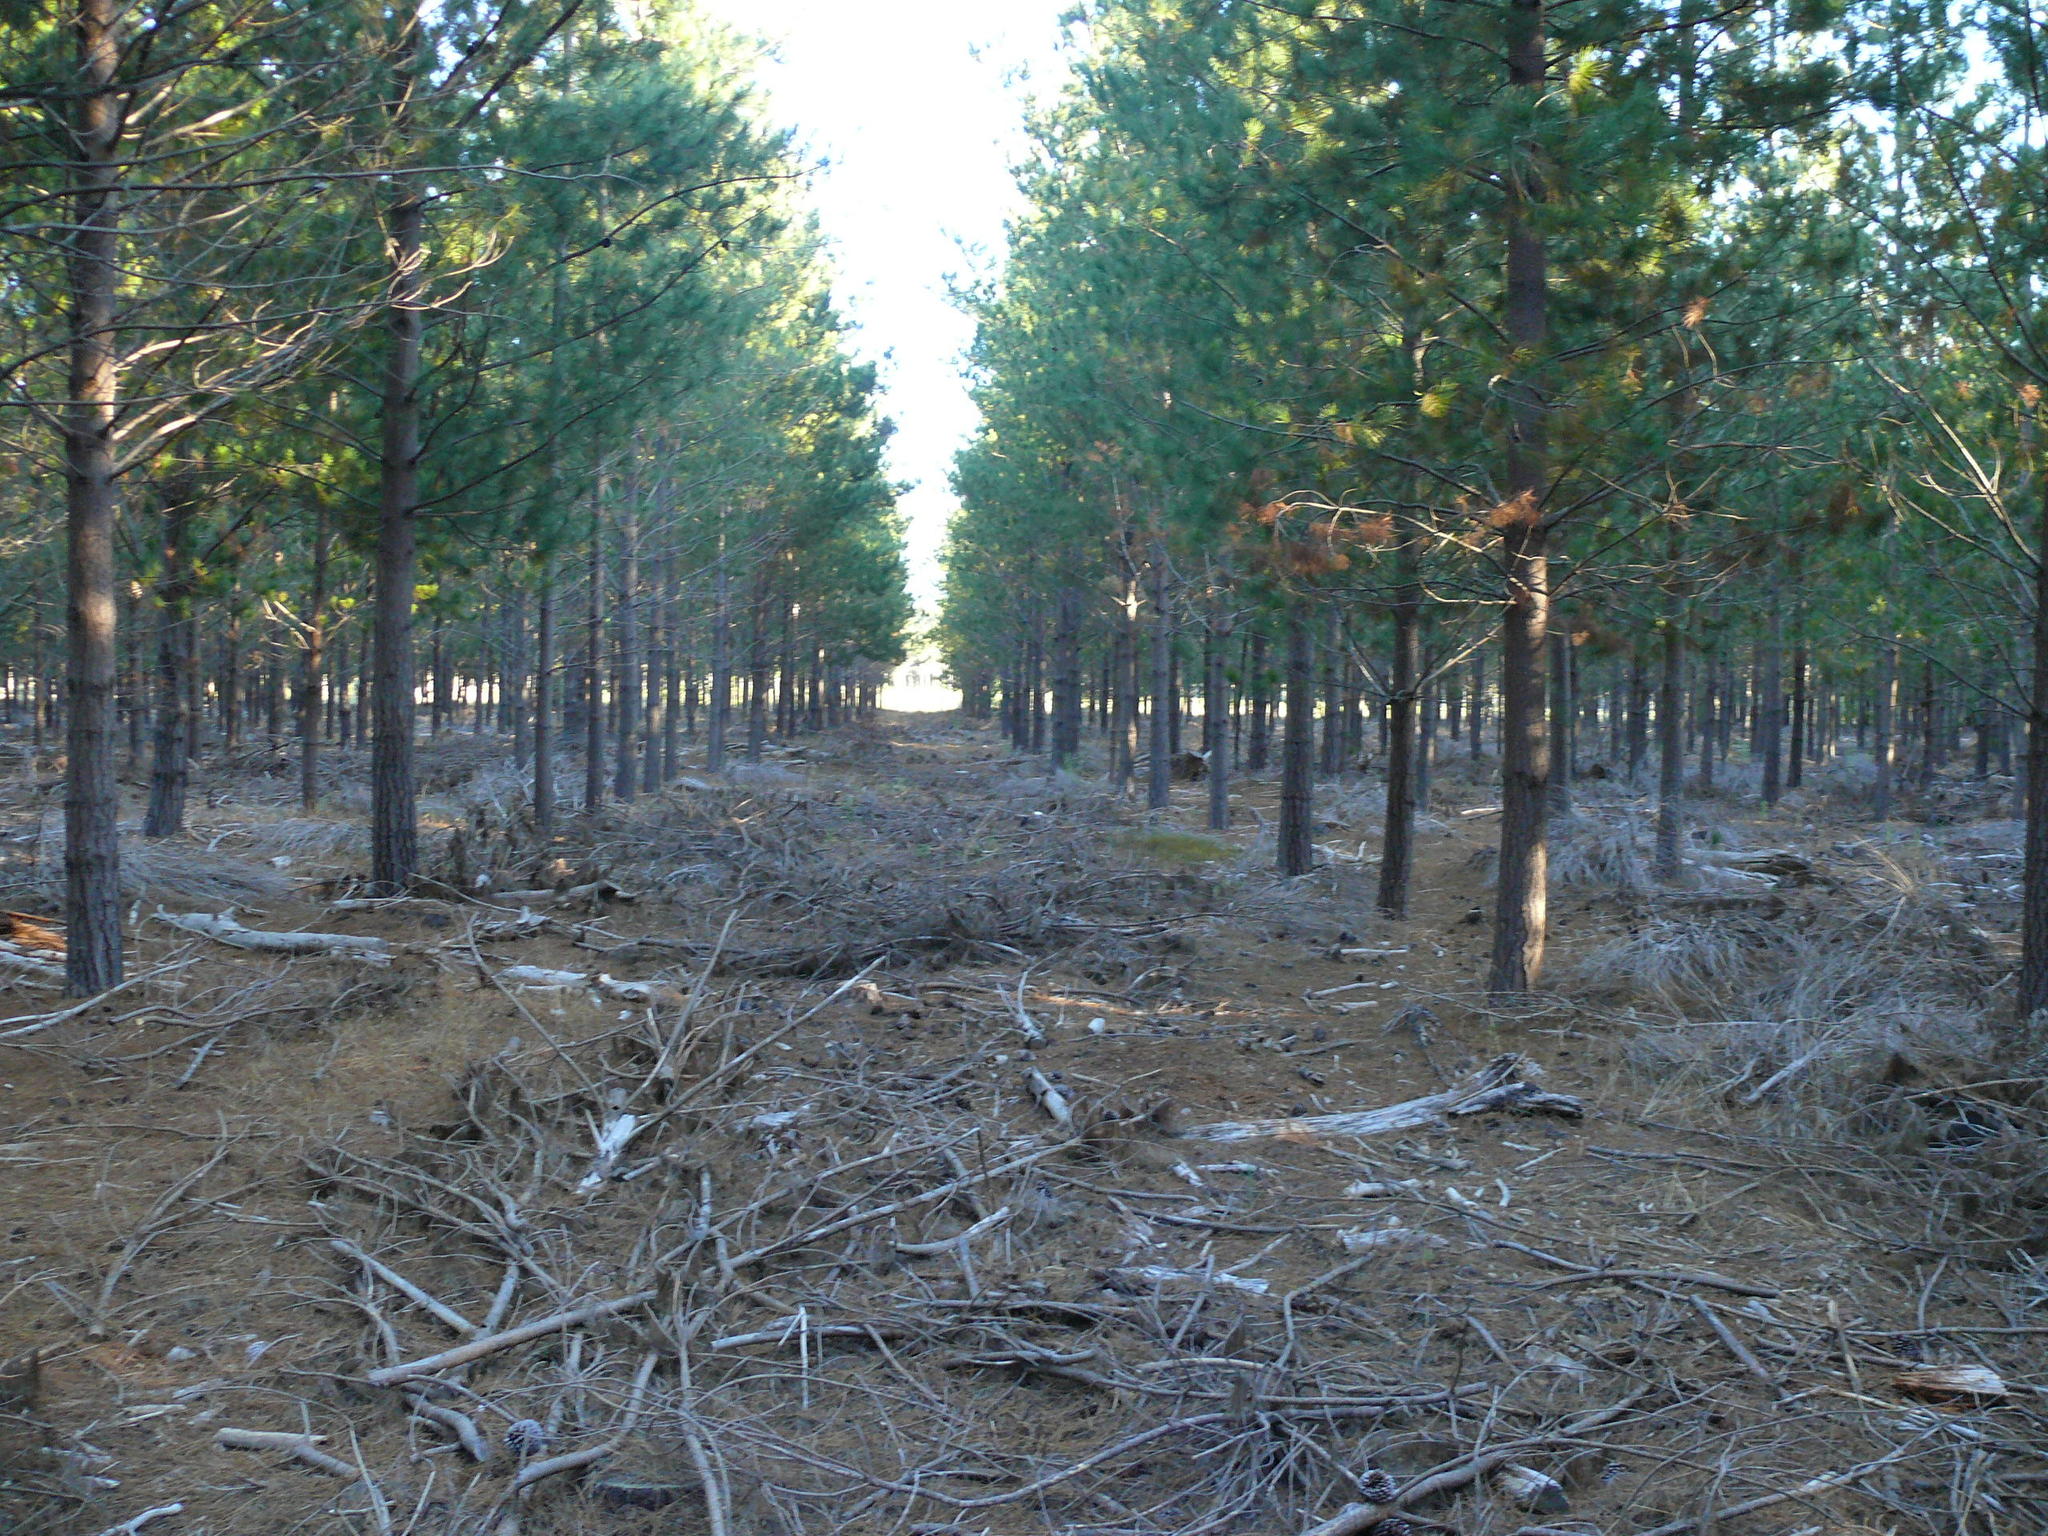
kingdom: Animalia
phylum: Arthropoda
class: Insecta
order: Hymenoptera
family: Siricidae
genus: Sirex
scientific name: Sirex noctilio
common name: Woodwasp
